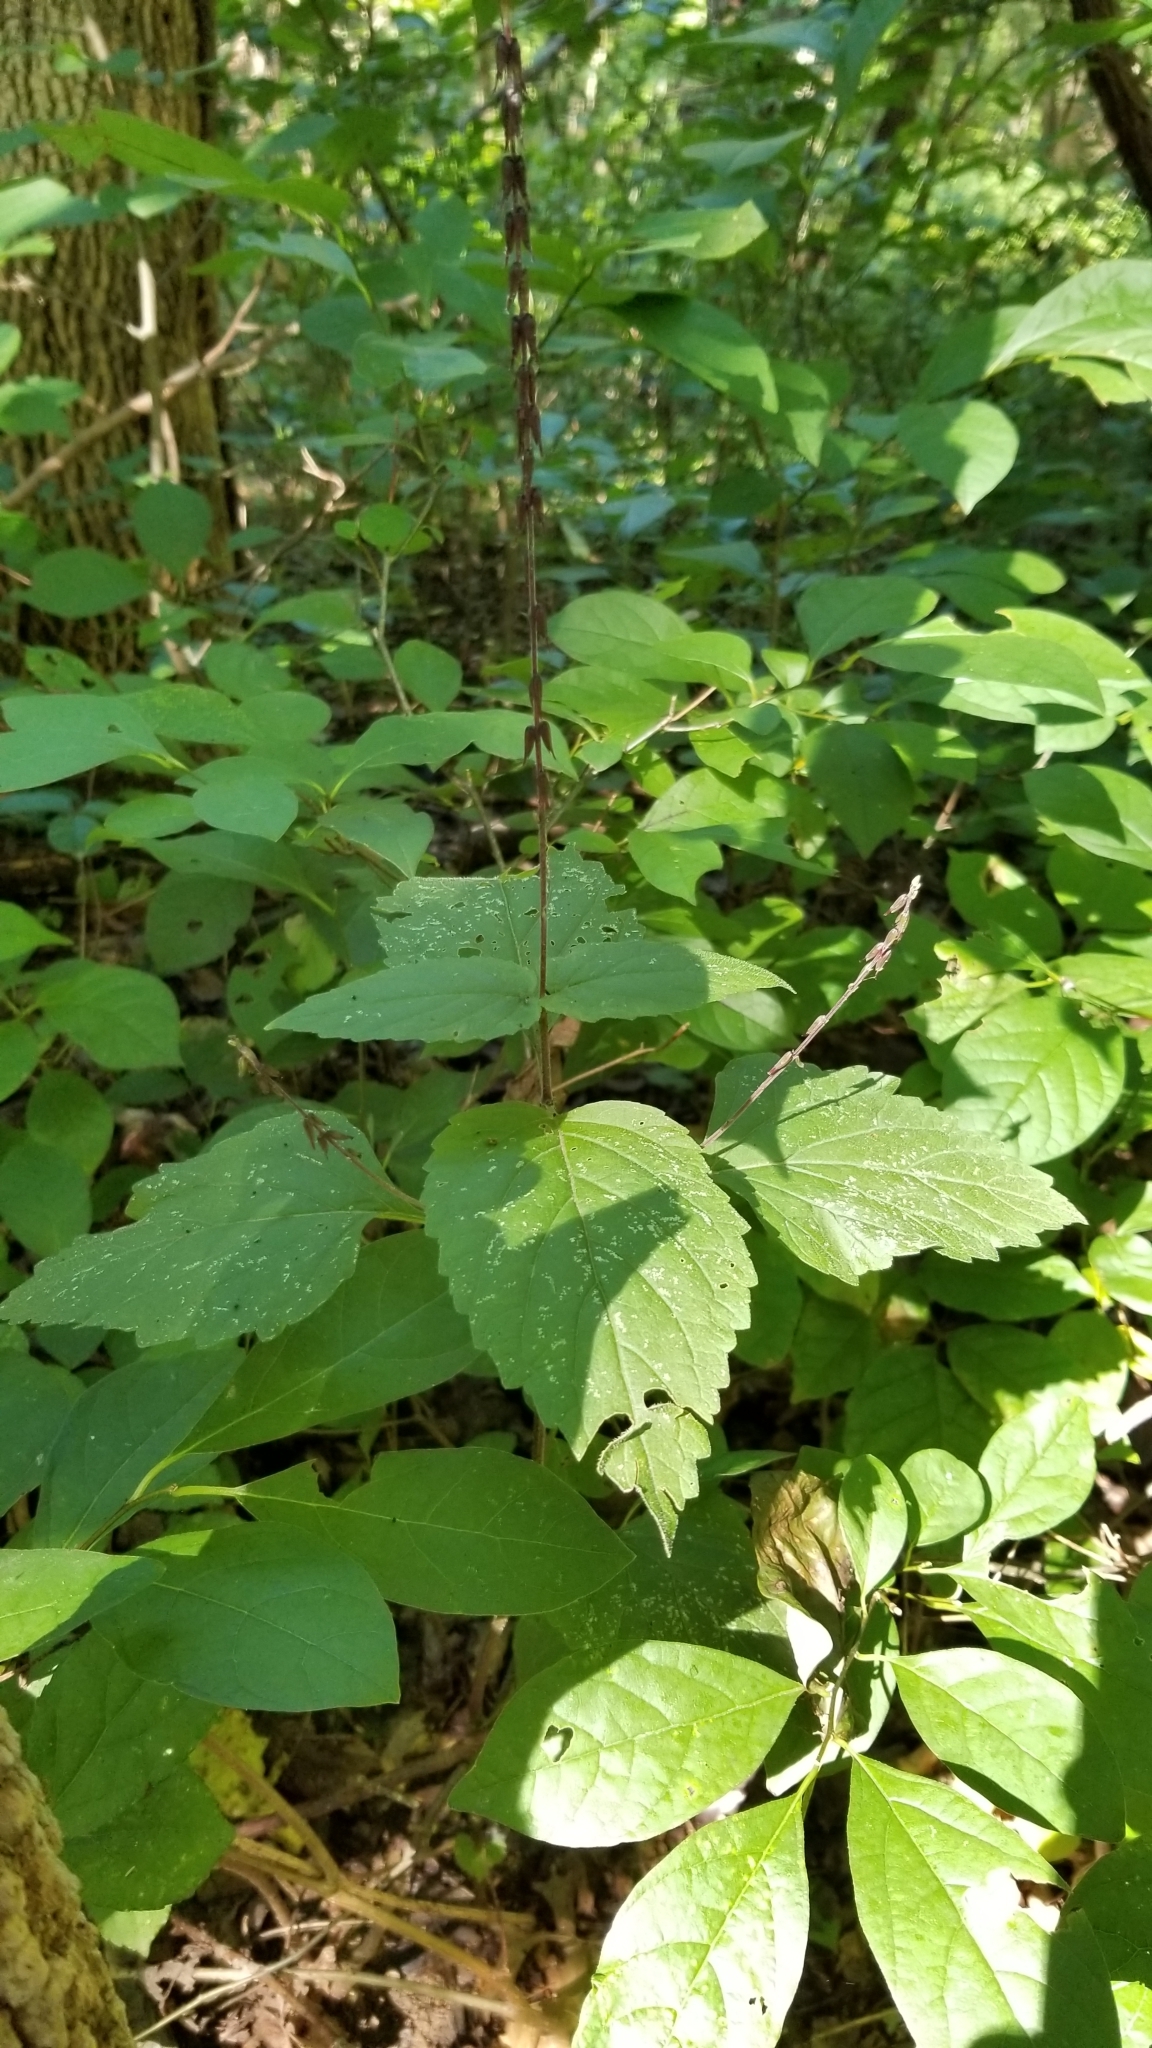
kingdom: Plantae
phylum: Tracheophyta
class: Magnoliopsida
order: Lamiales
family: Phrymaceae
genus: Phryma
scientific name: Phryma leptostachya
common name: American lopseed
